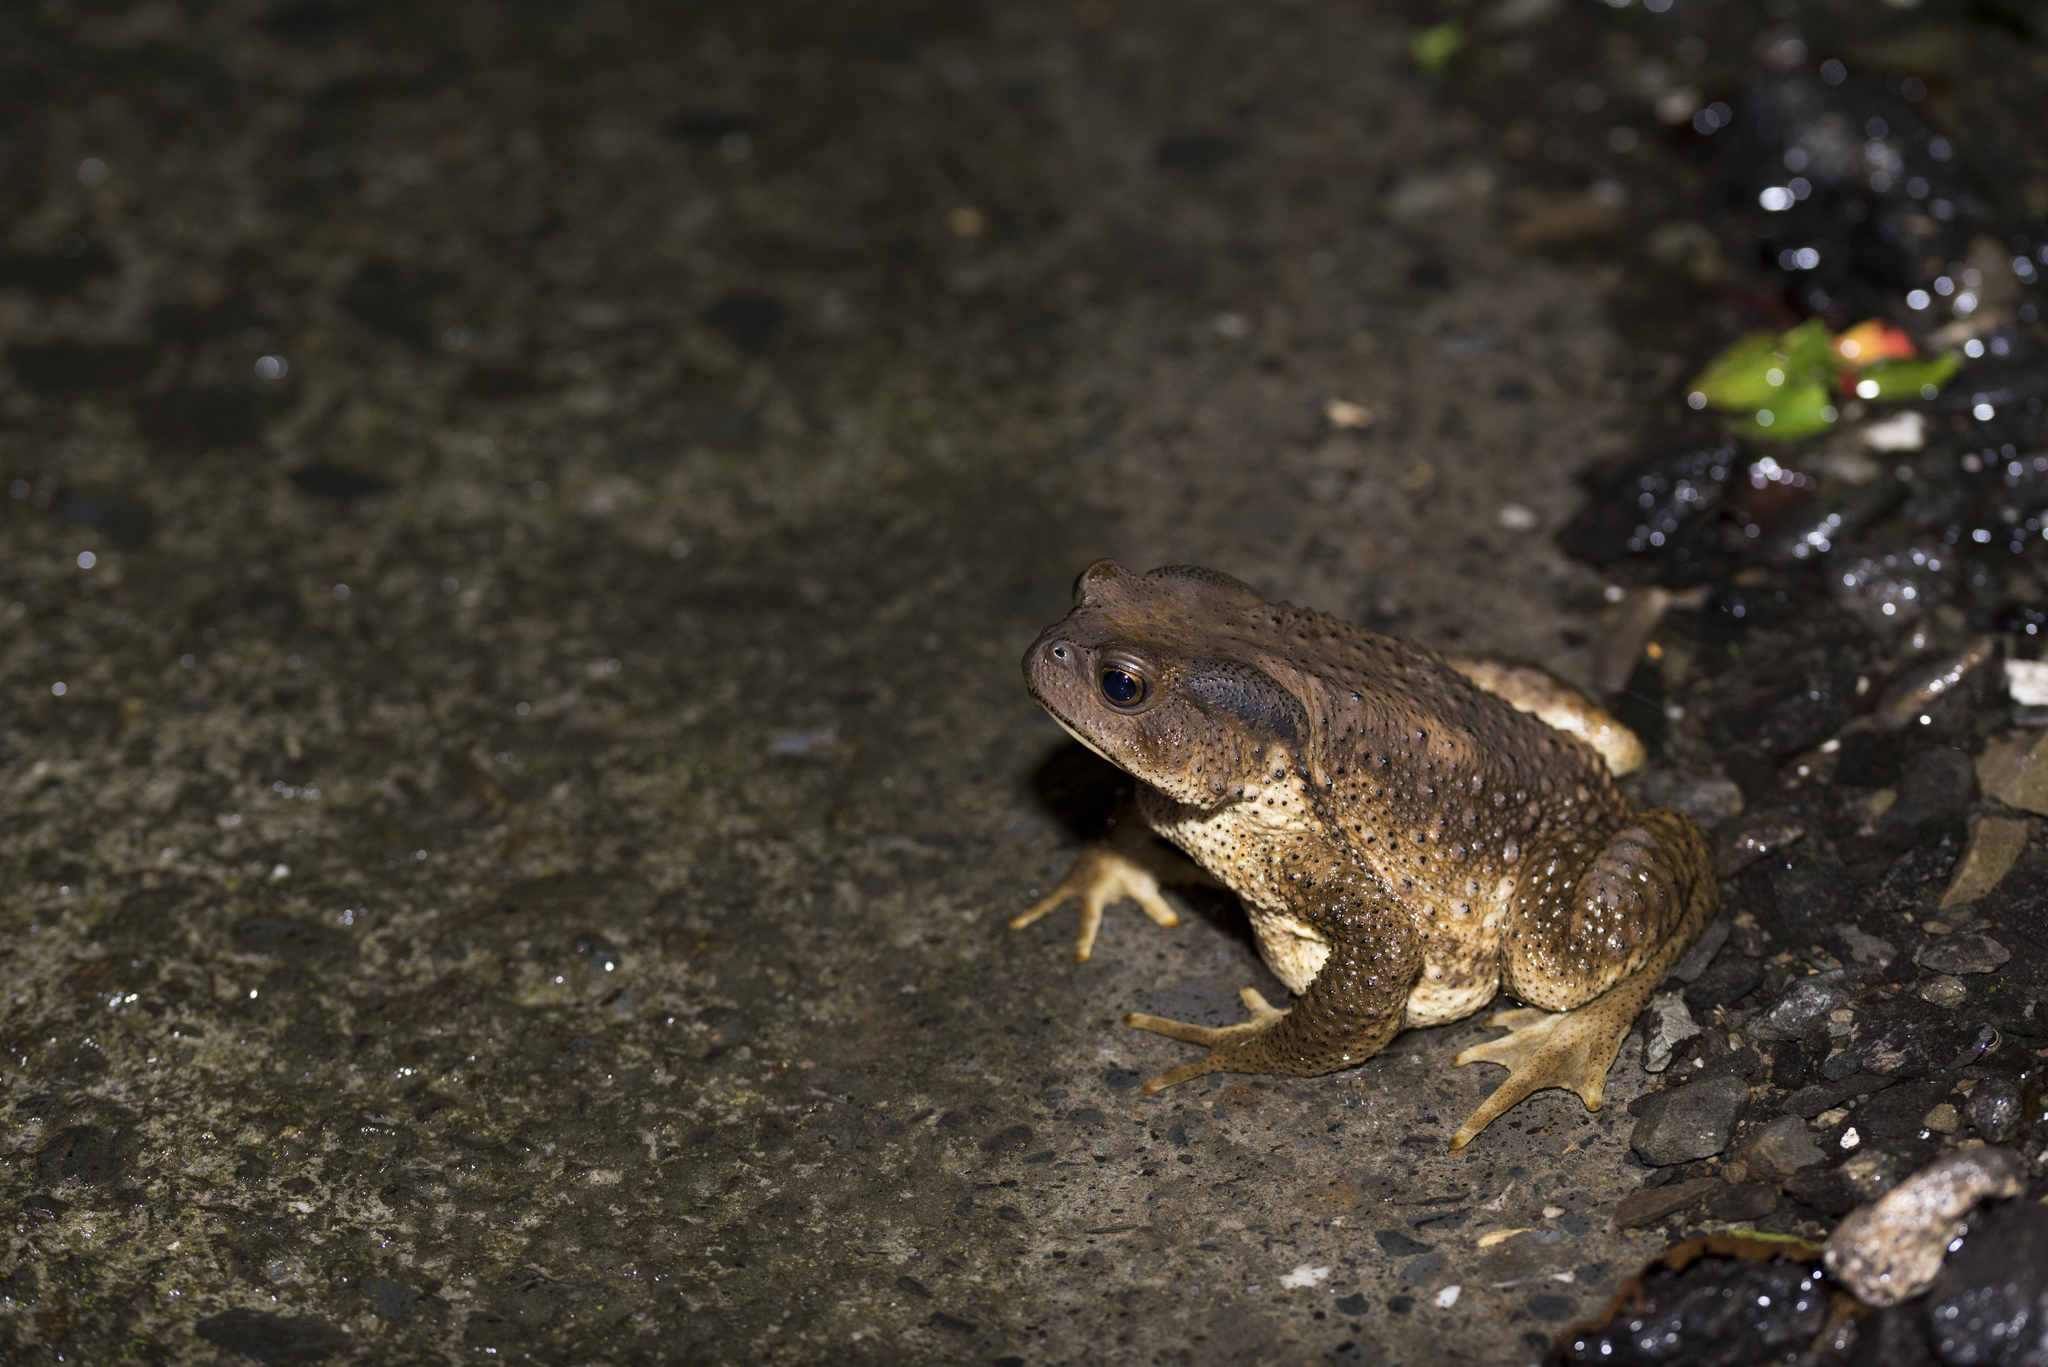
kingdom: Animalia
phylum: Chordata
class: Amphibia
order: Anura
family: Bufonidae
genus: Bufo
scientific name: Bufo bankorensis
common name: Bankor toad
